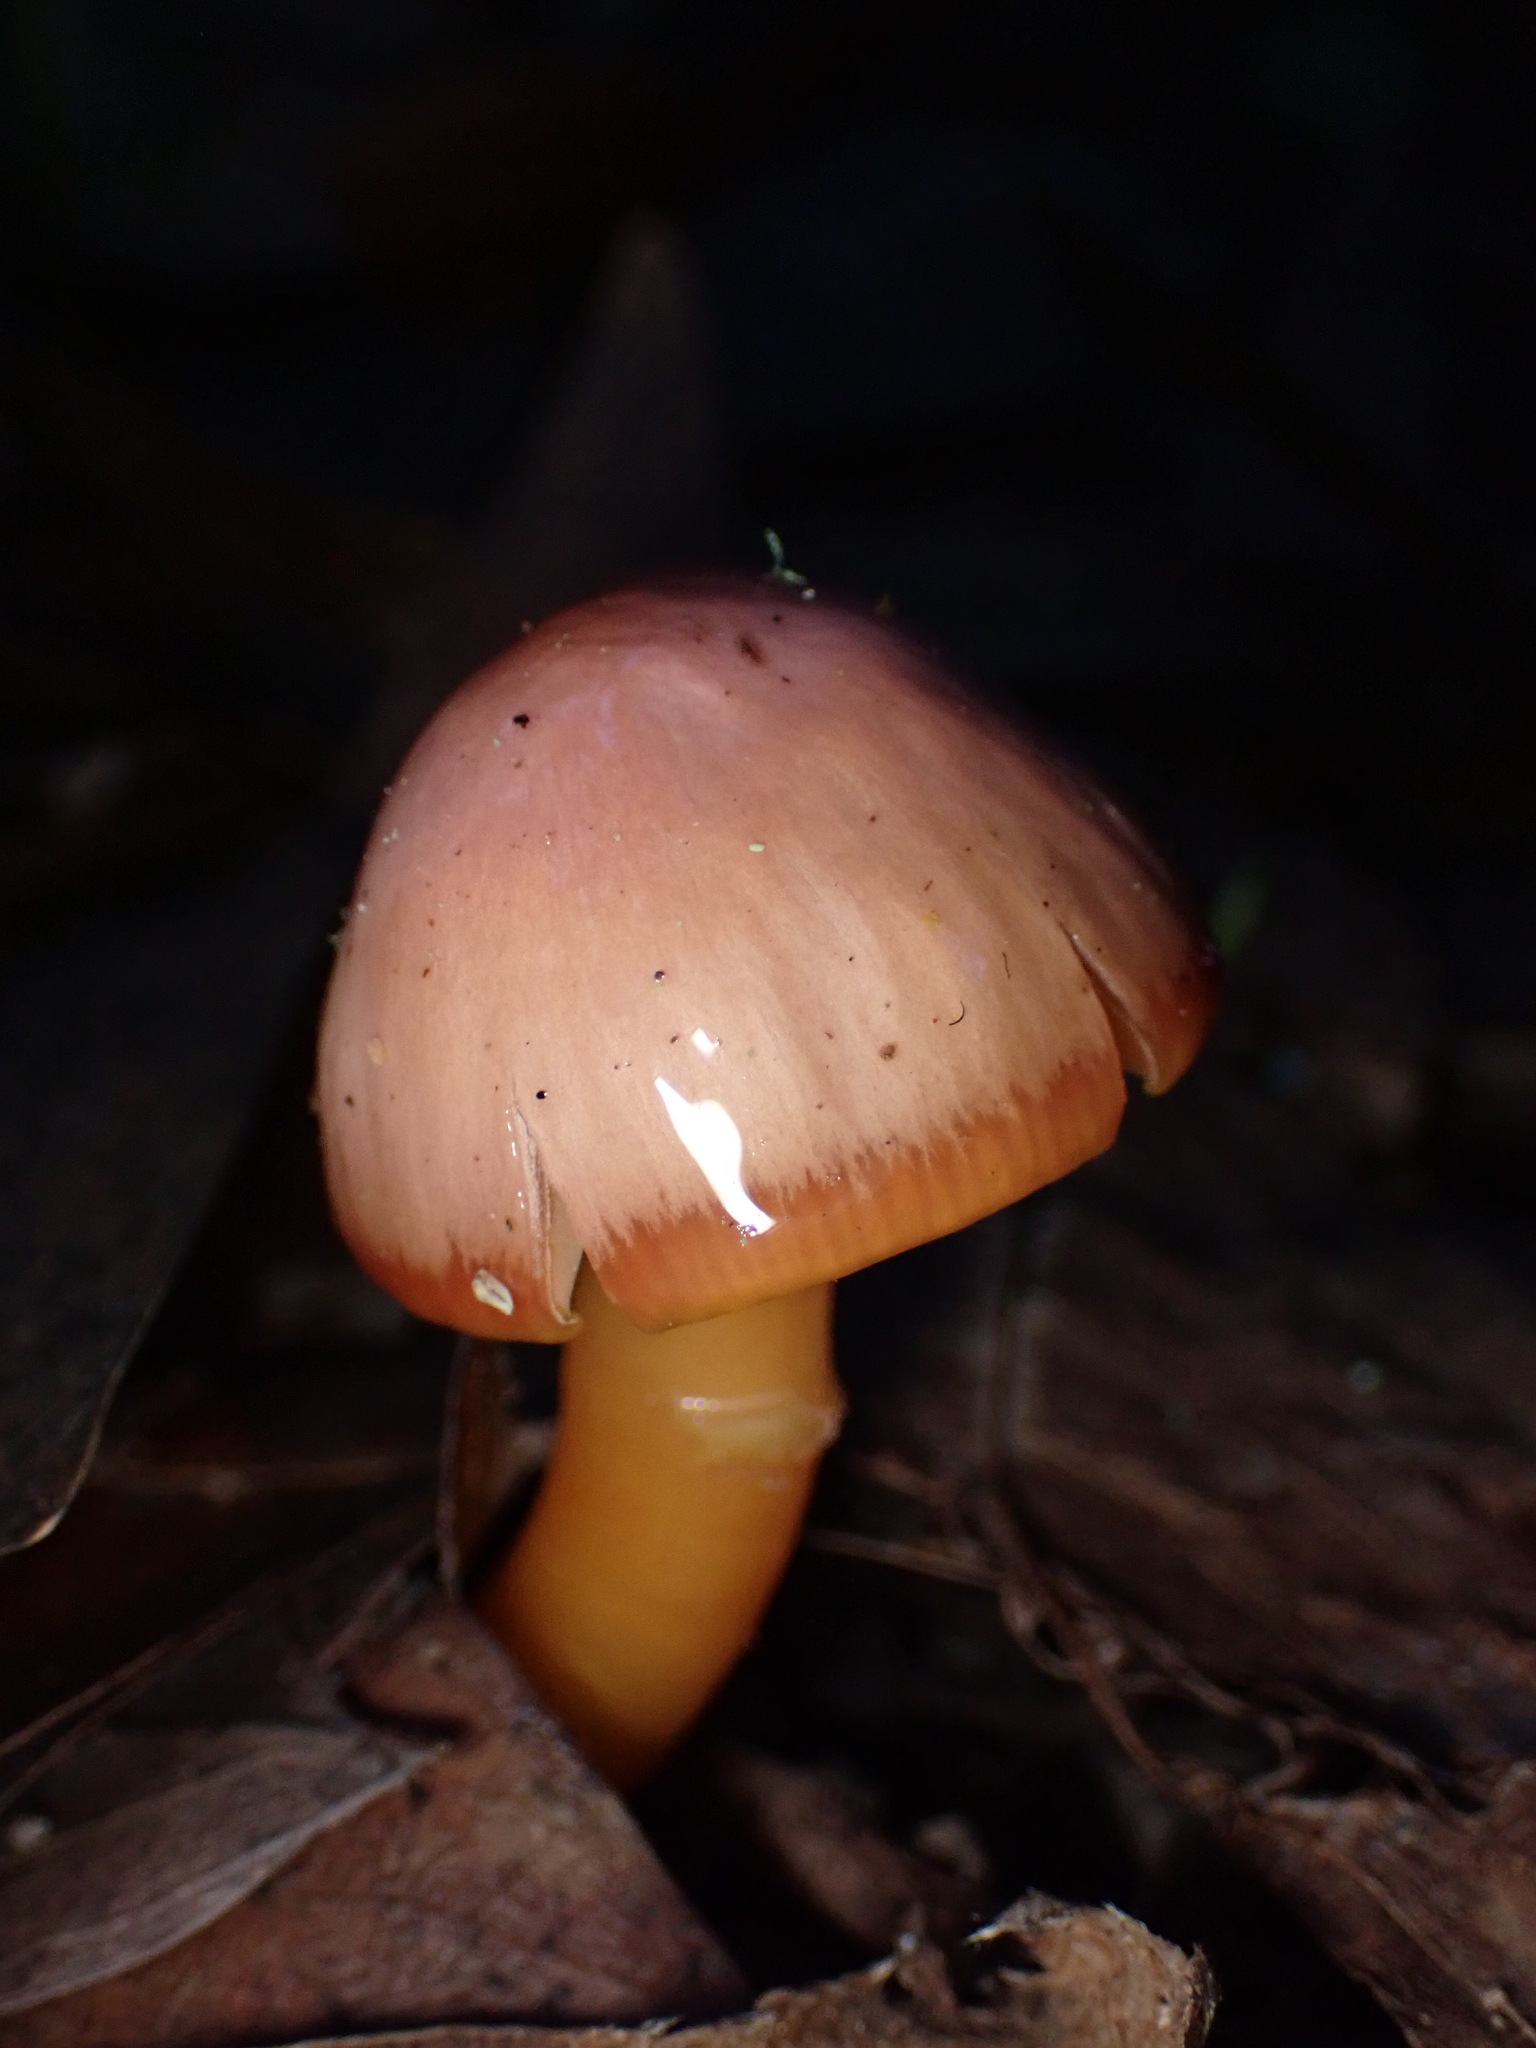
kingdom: Fungi
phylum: Basidiomycota
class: Agaricomycetes
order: Agaricales
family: Hygrophoraceae
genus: Gliophorus
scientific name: Gliophorus psittacinus
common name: Parrot wax-cap
